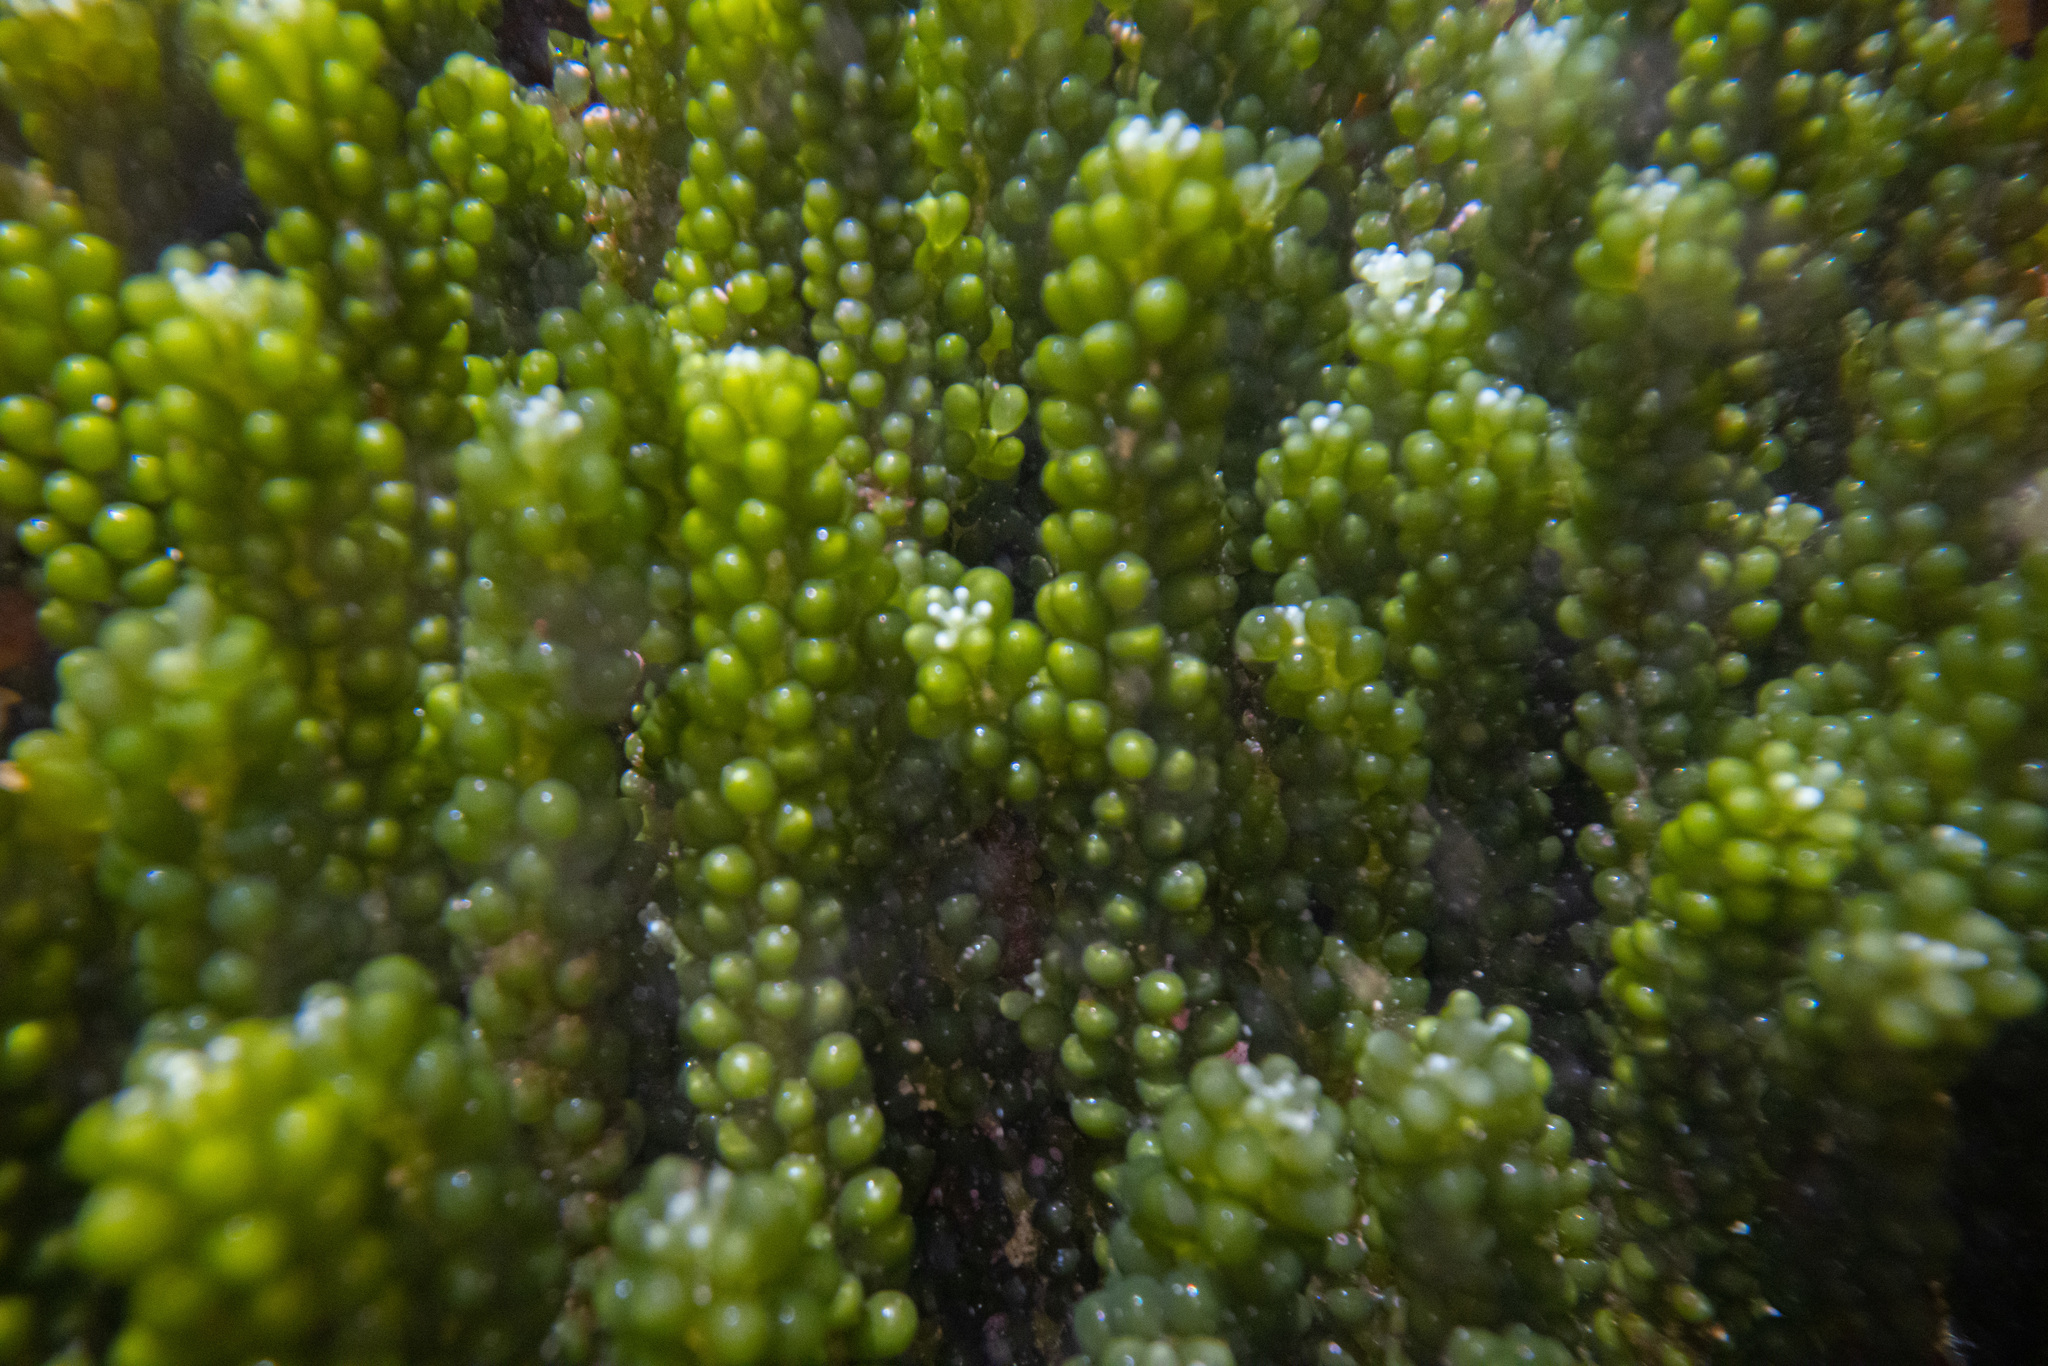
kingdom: Plantae
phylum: Chlorophyta
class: Ulvophyceae
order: Bryopsidales
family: Caulerpaceae
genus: Caulerpa
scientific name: Caulerpa geminata
